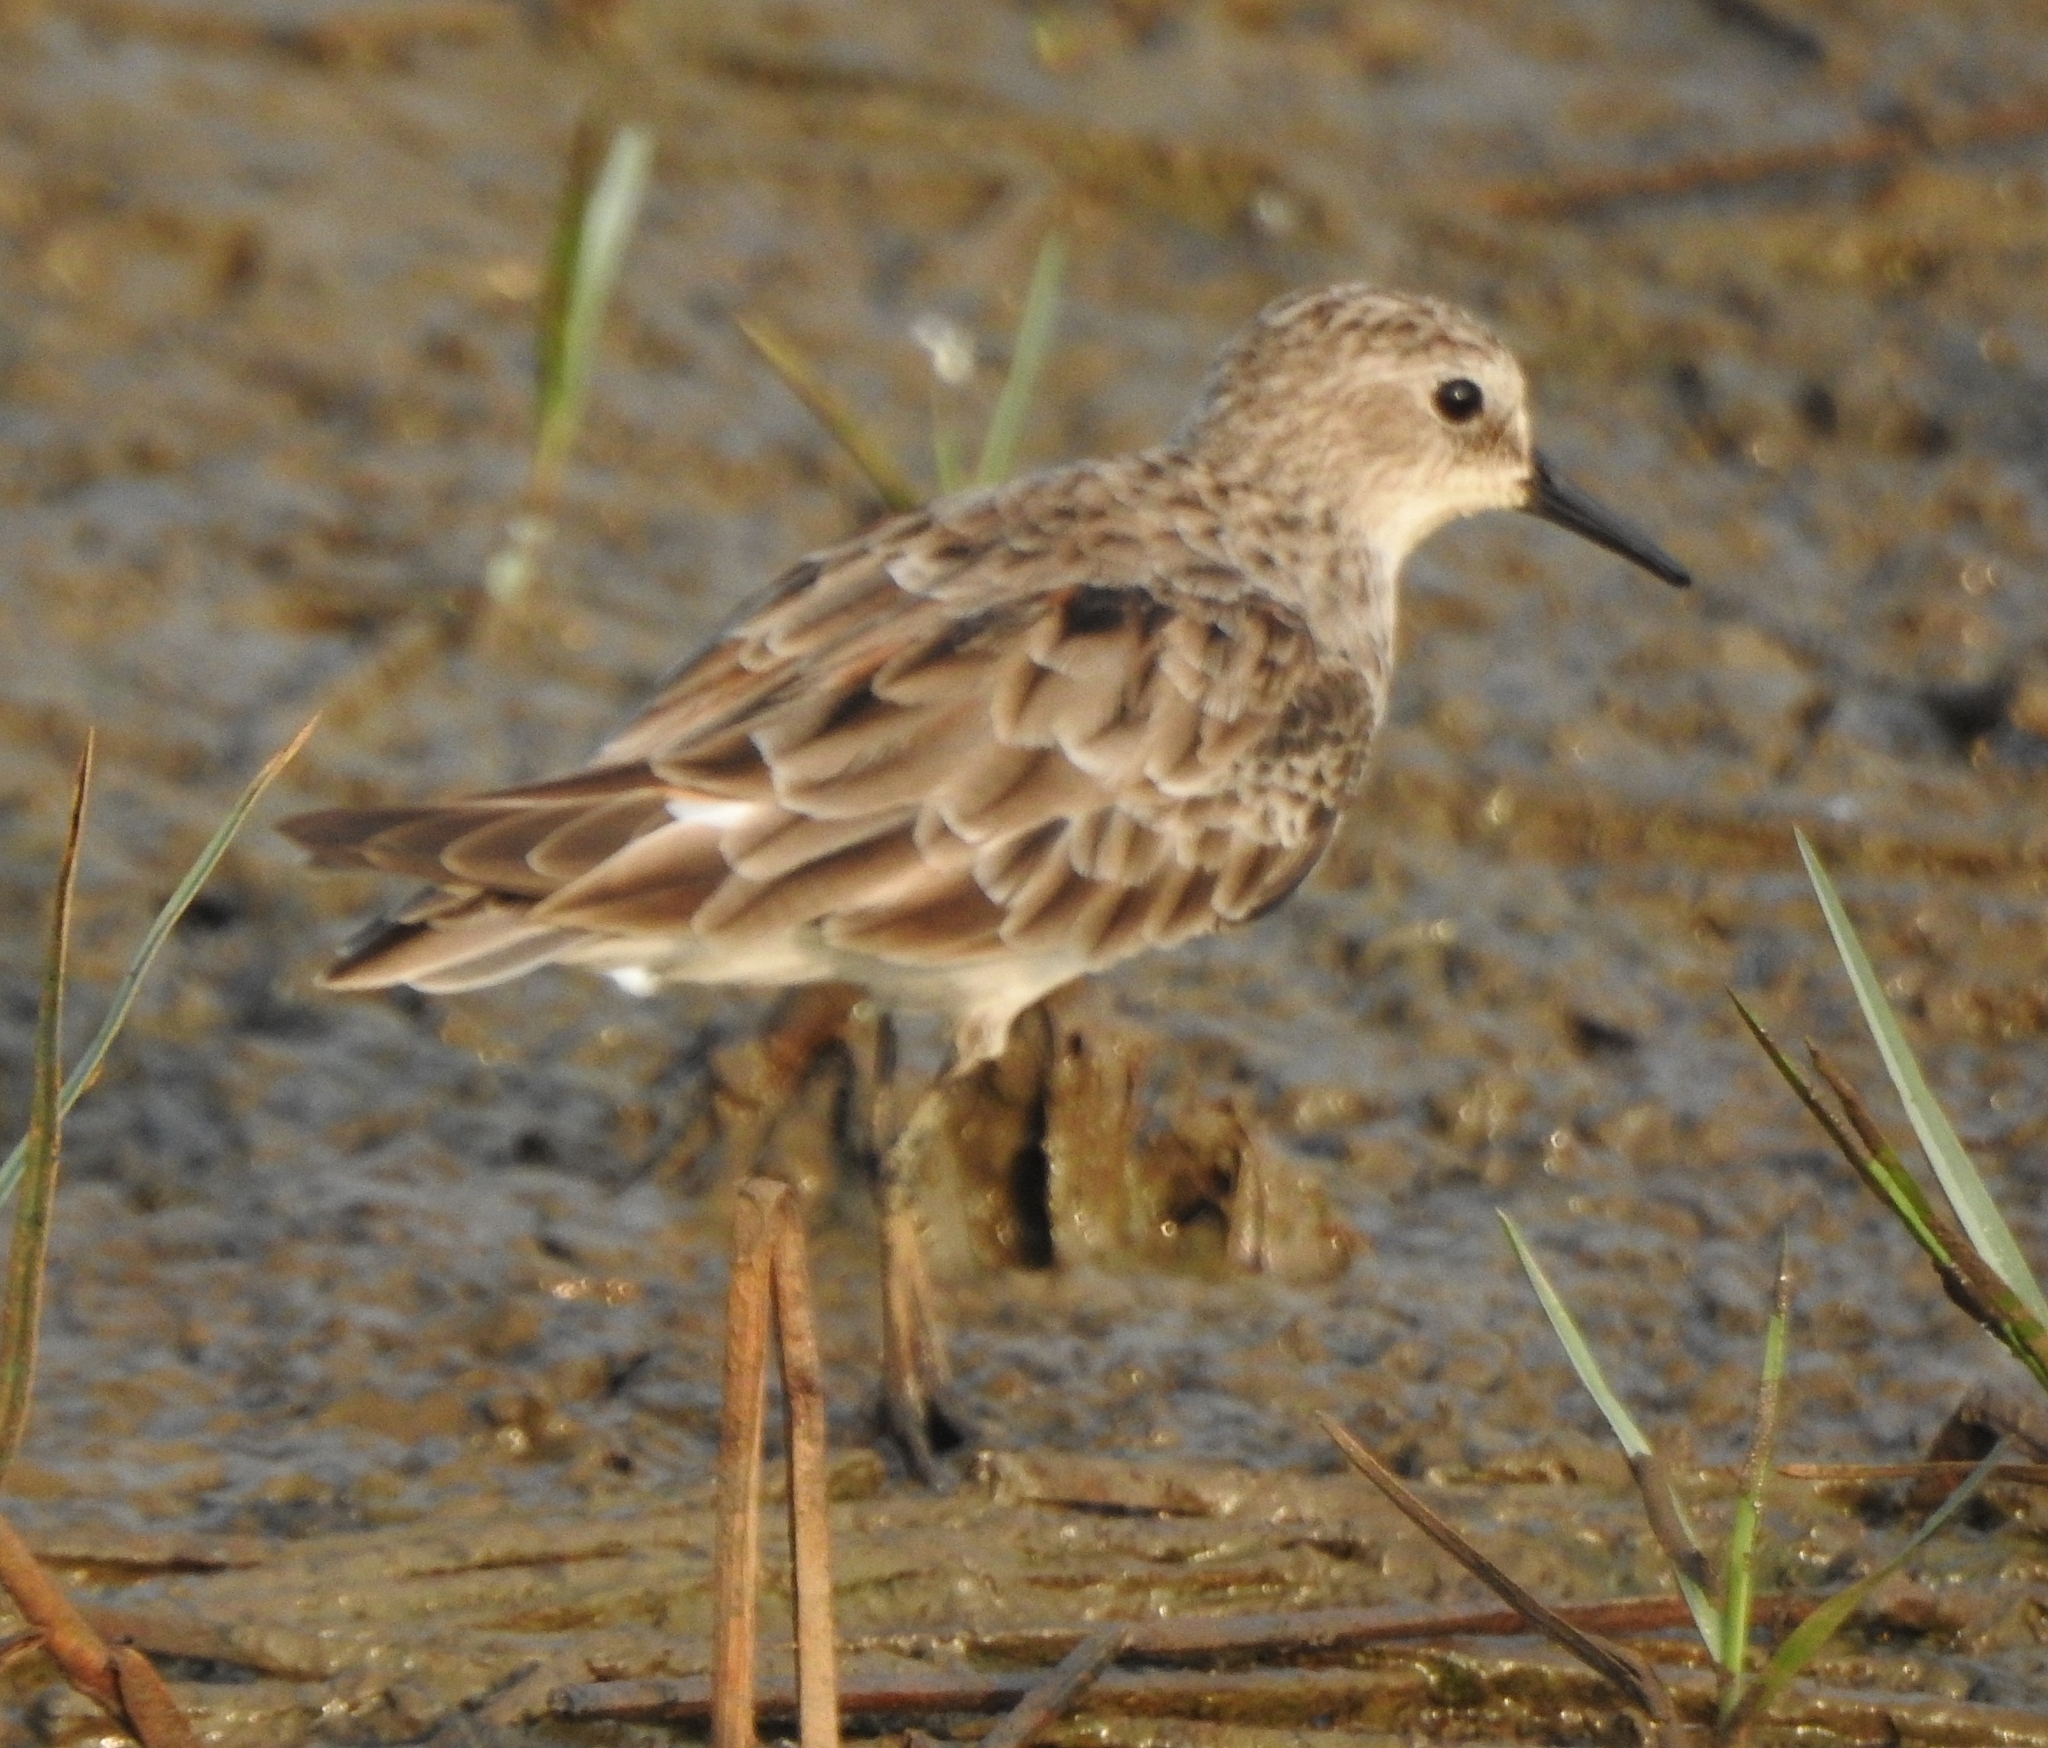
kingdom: Animalia
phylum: Chordata
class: Aves
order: Charadriiformes
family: Scolopacidae
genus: Calidris
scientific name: Calidris minuta
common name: Little stint
